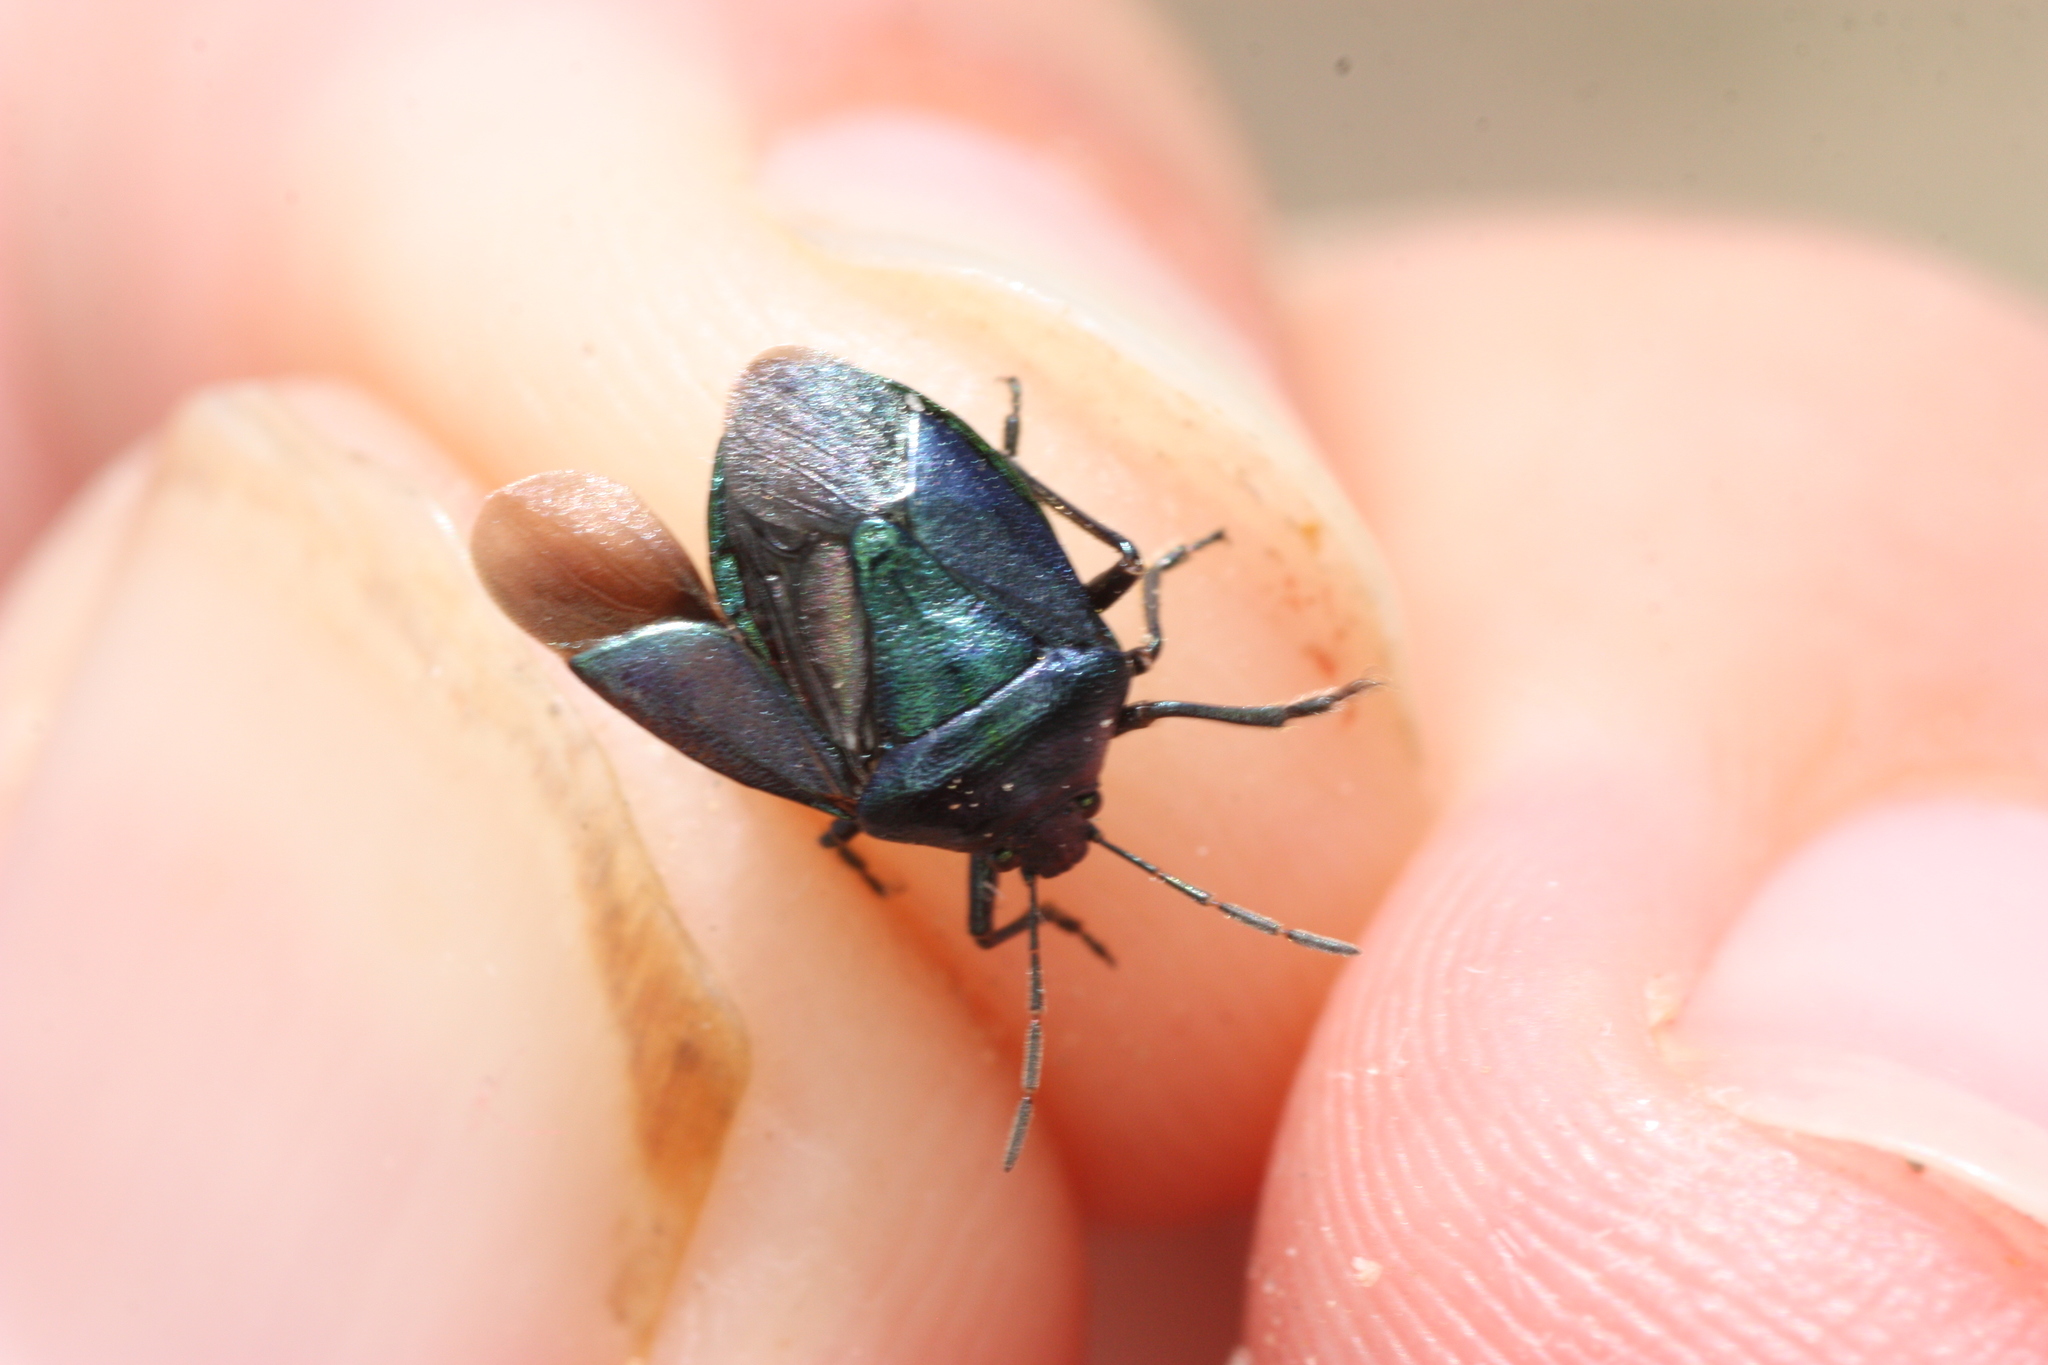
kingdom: Animalia
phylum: Arthropoda
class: Insecta
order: Hemiptera
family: Pentatomidae
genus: Zicrona
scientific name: Zicrona
